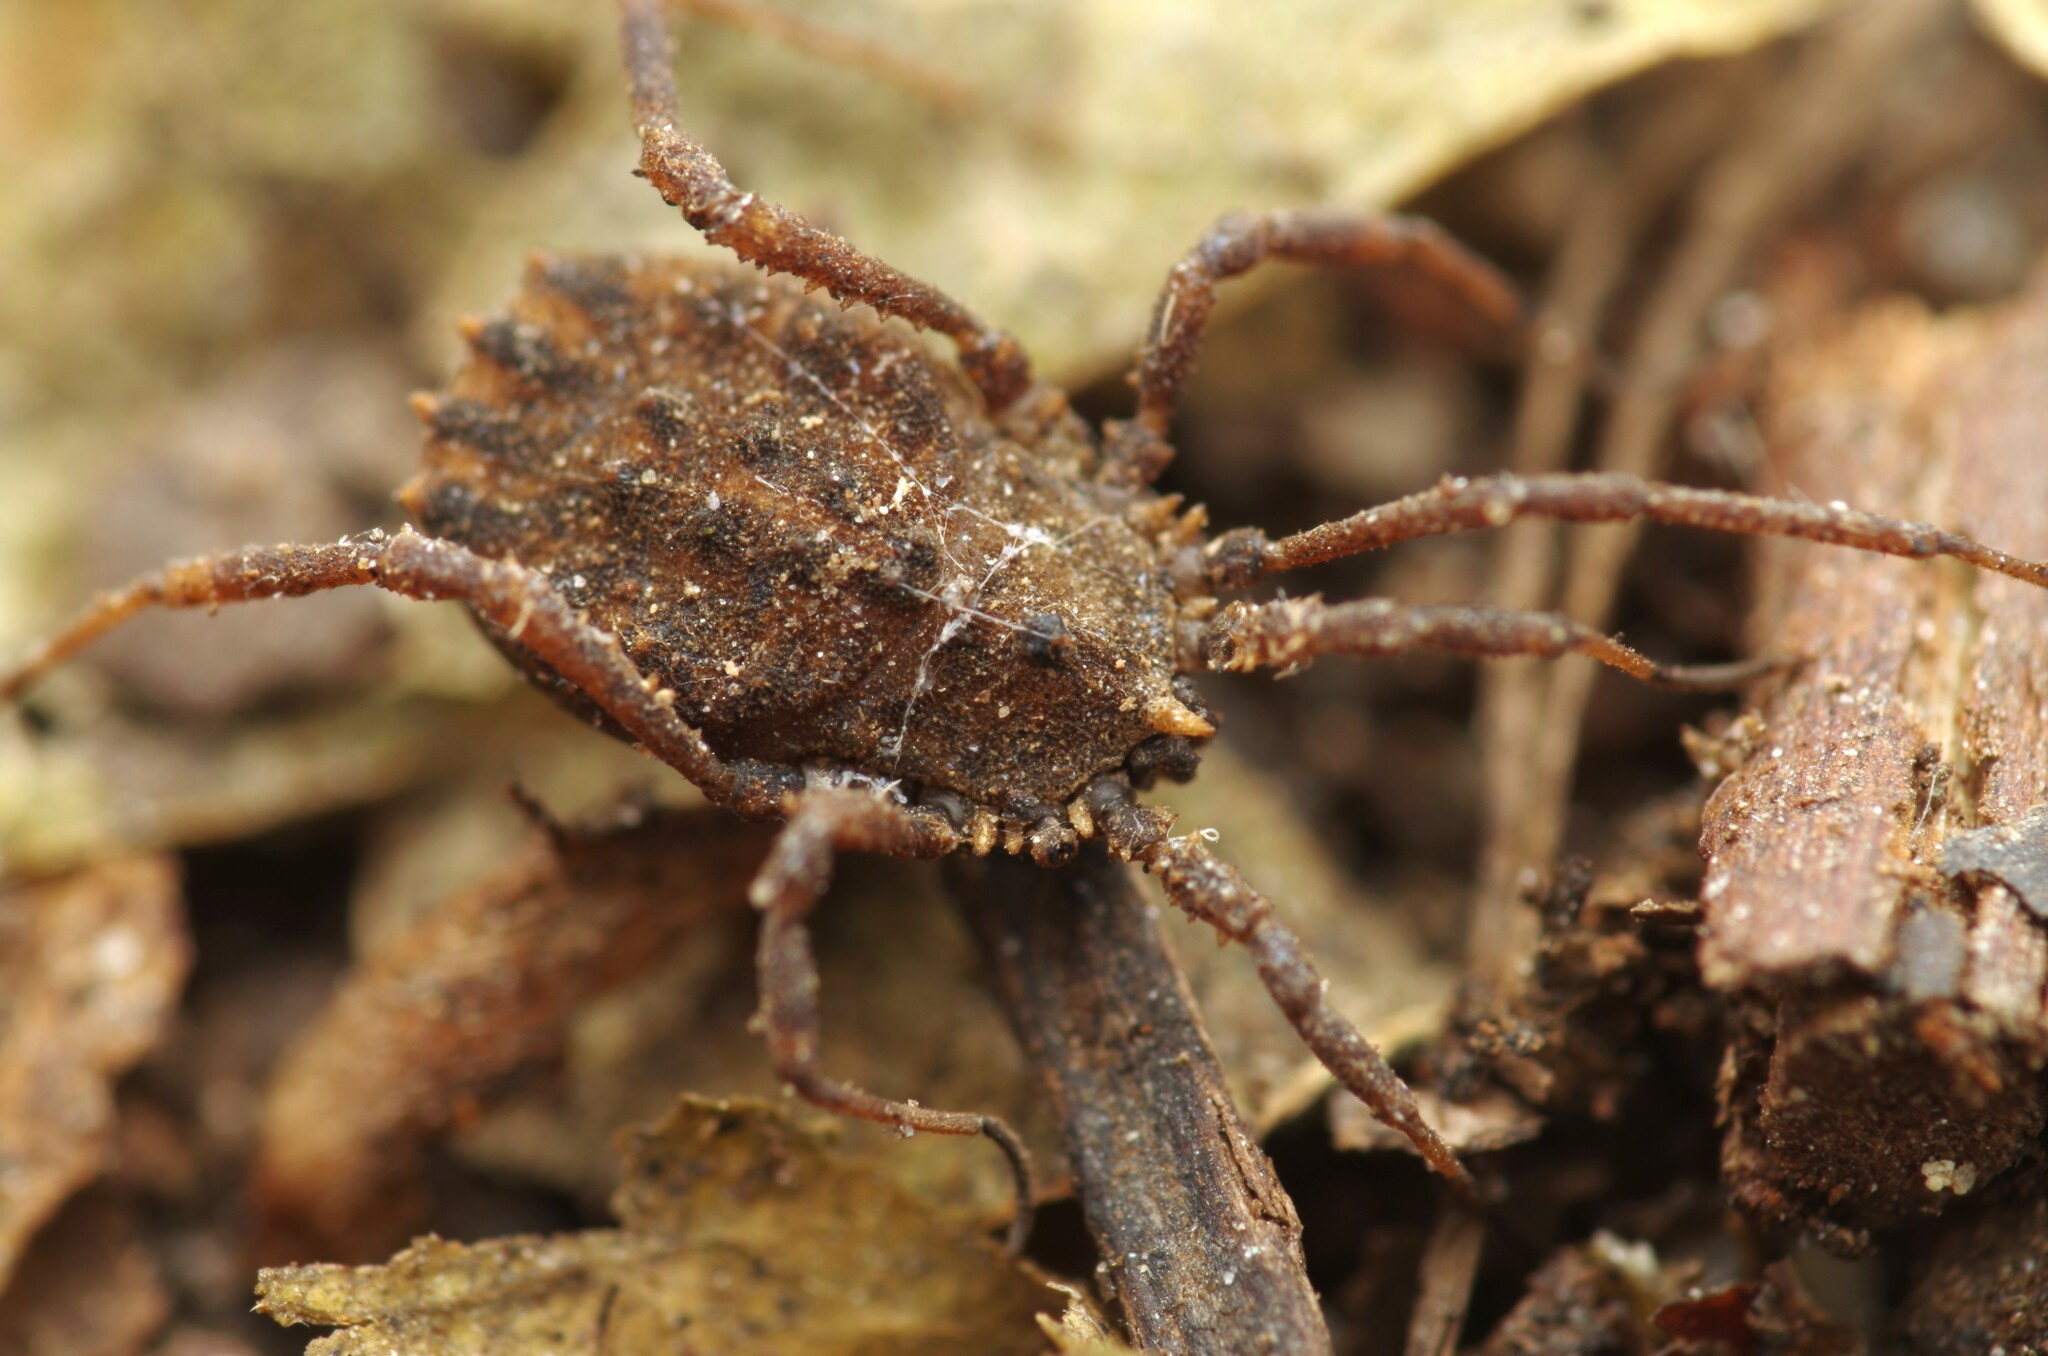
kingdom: Animalia
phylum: Arthropoda
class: Arachnida
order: Opiliones
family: Sclerosomatidae
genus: Homalenotus
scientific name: Homalenotus quadridentatus
